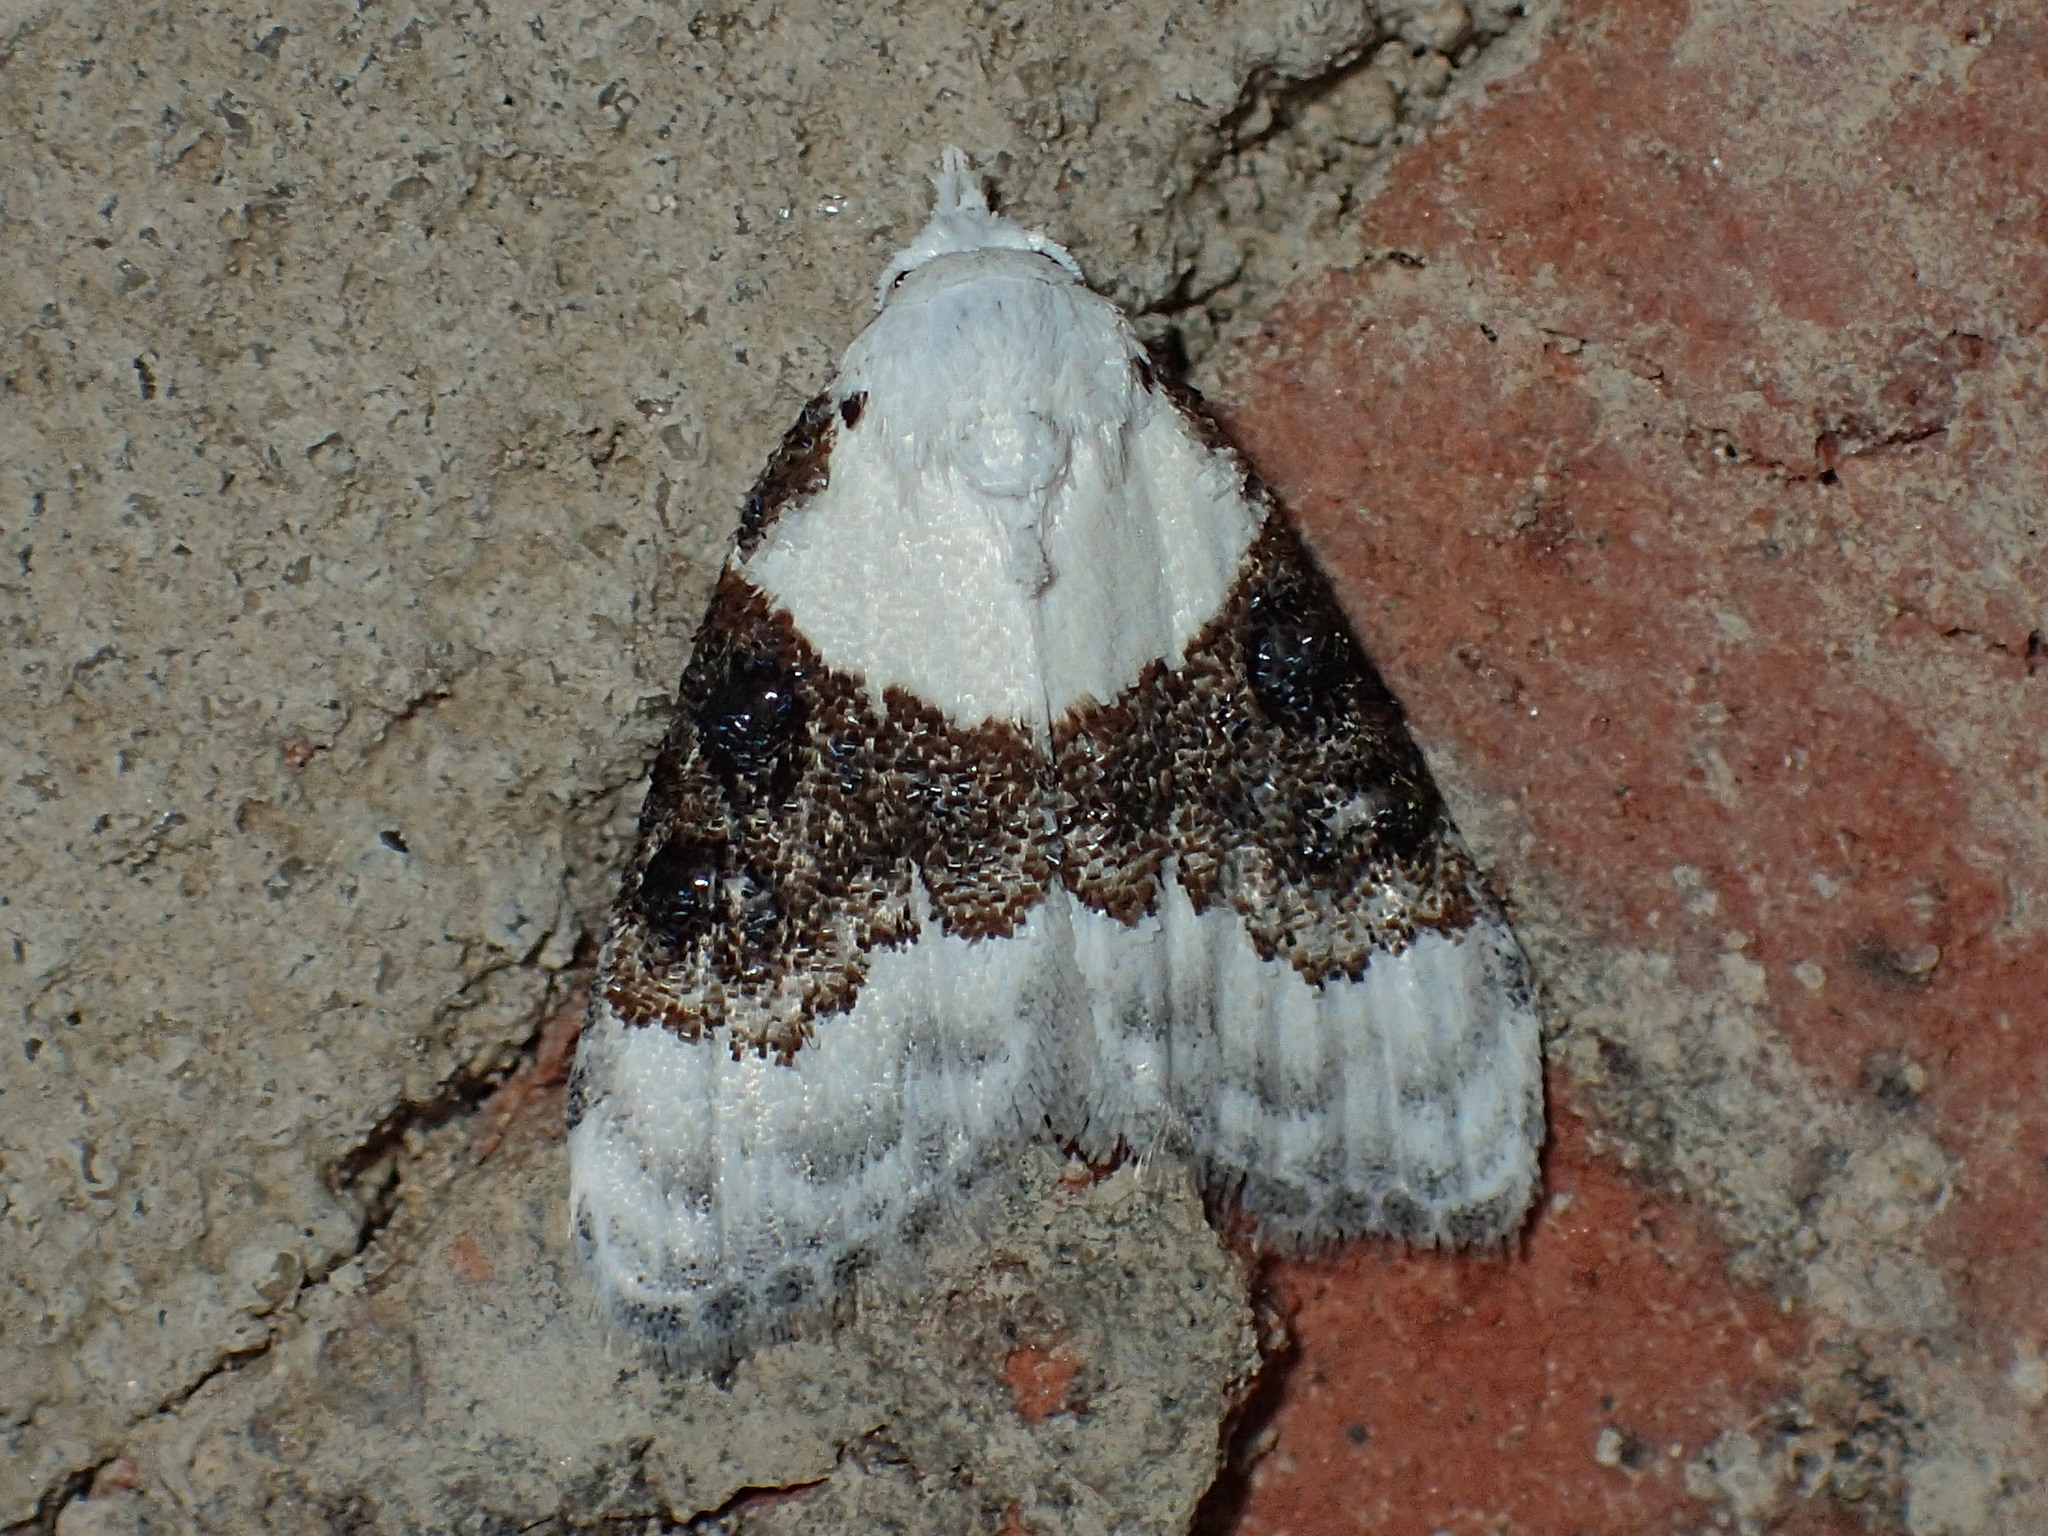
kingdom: Animalia
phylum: Arthropoda
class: Insecta
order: Lepidoptera
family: Nolidae
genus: Nola
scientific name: Nola pustulata
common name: Sharp-blotched nola moth
